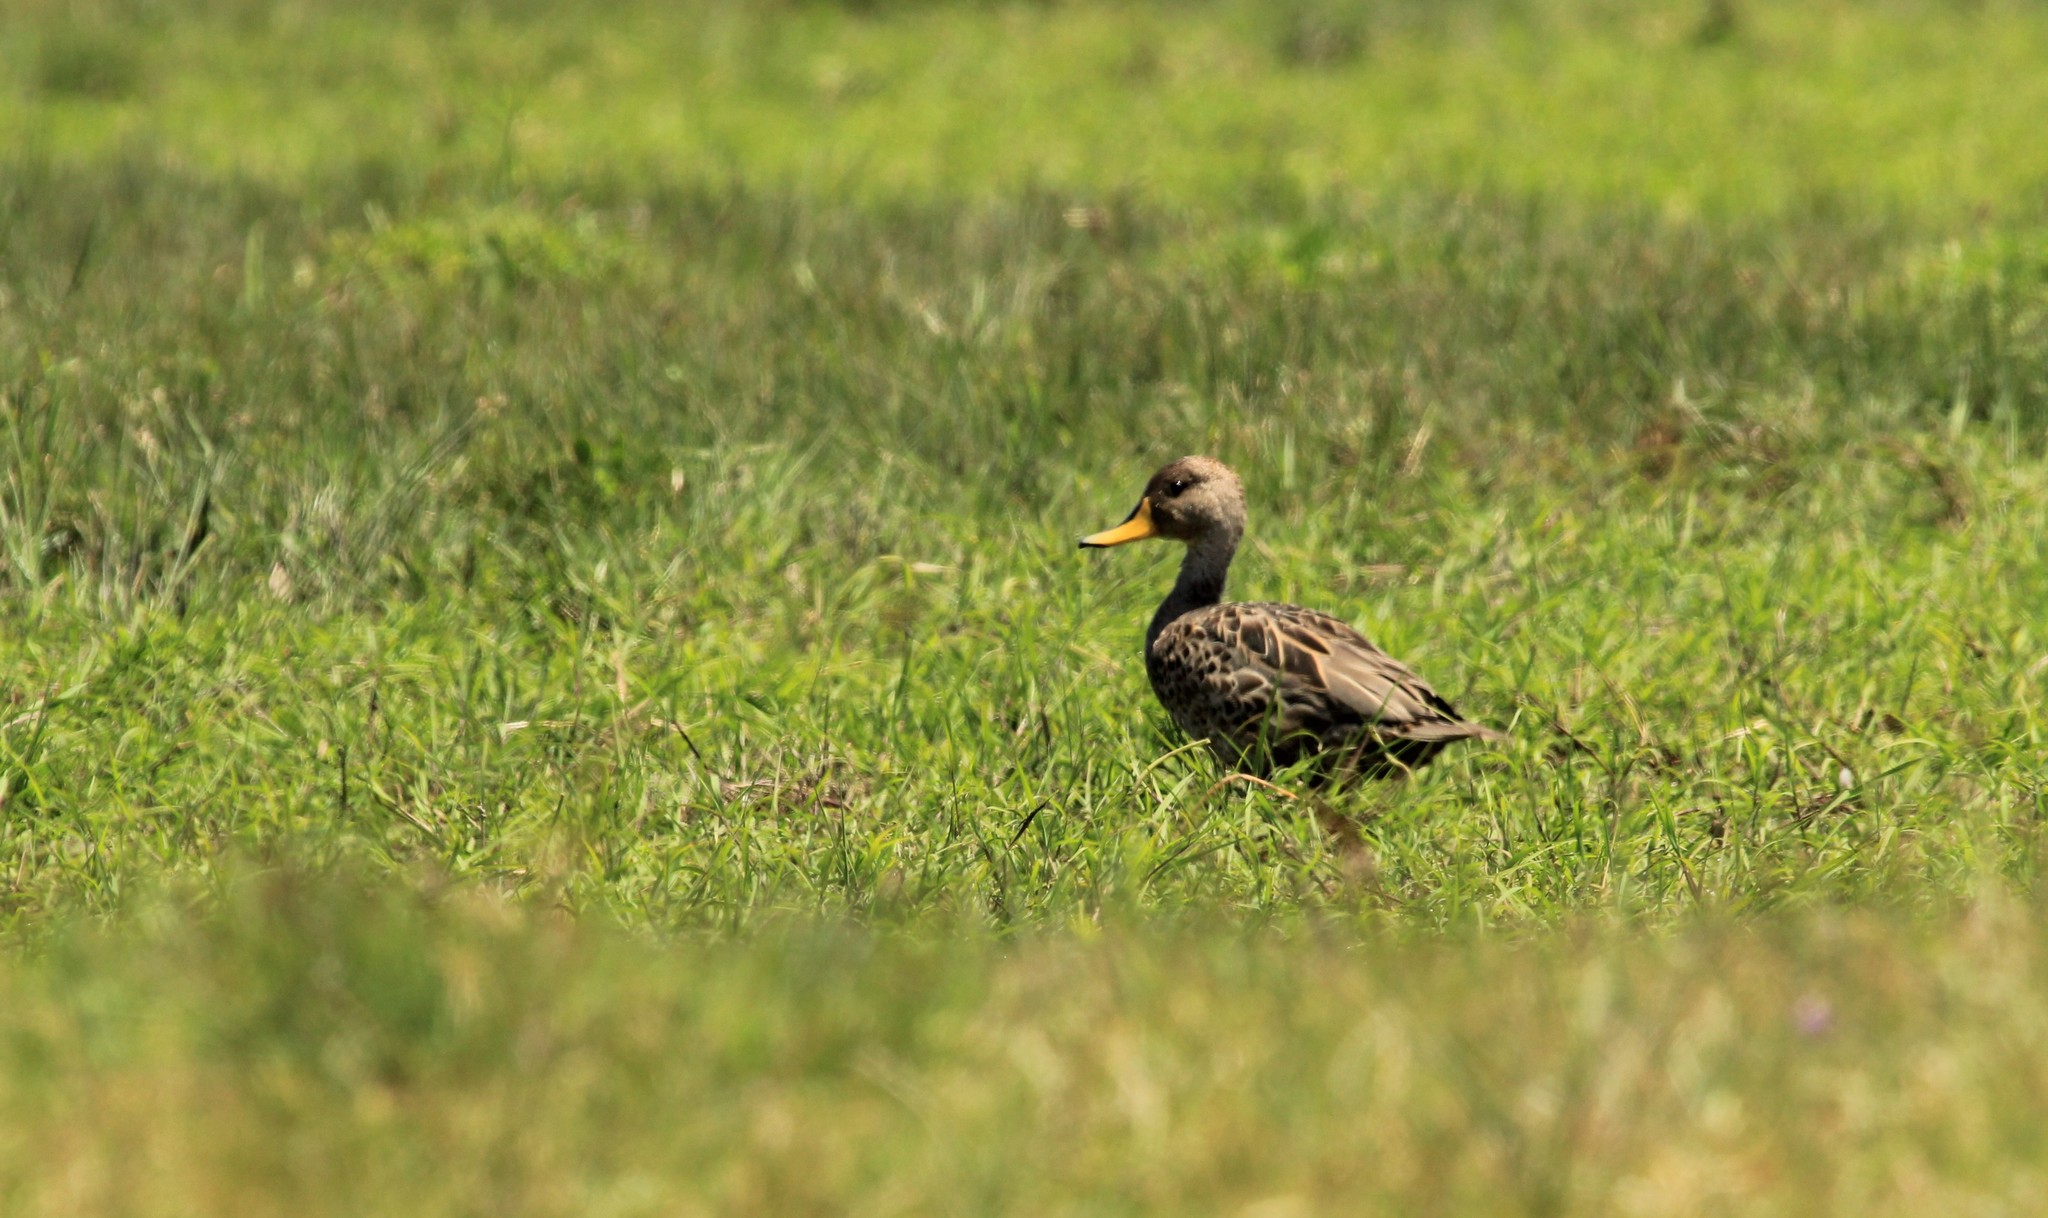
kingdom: Animalia
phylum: Chordata
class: Aves
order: Anseriformes
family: Anatidae
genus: Anas
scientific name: Anas georgica
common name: Yellow-billed pintail
